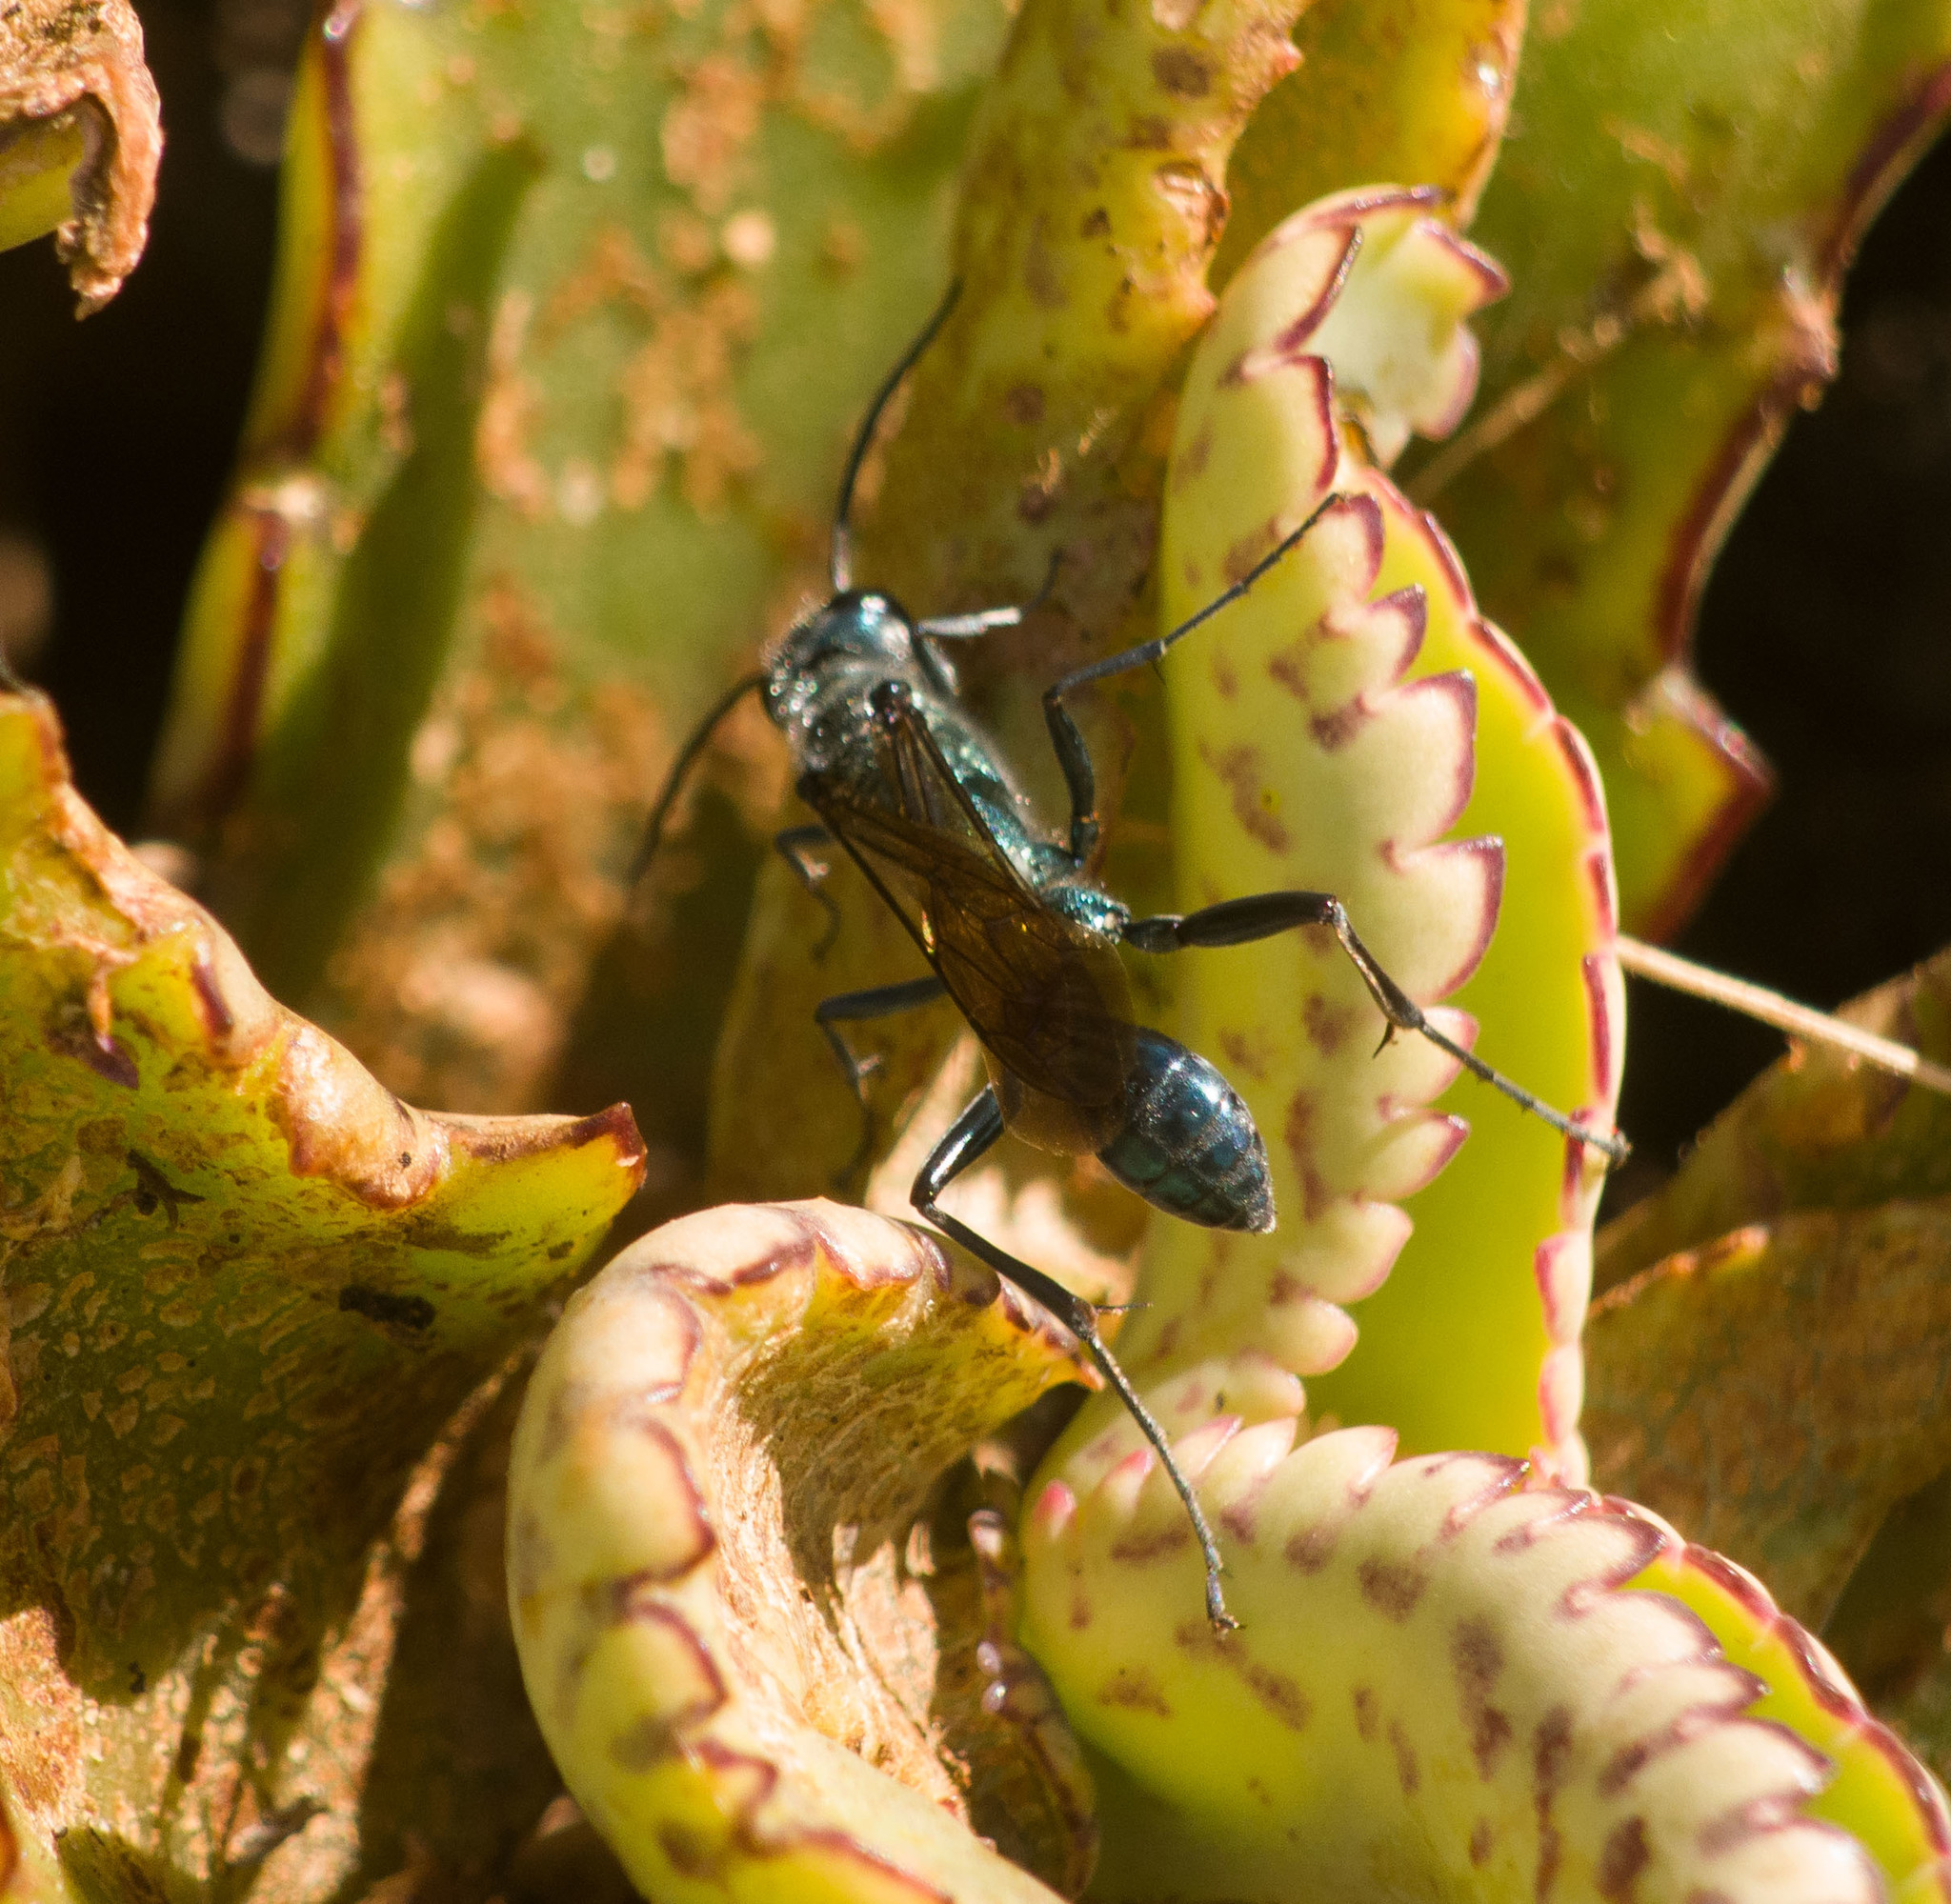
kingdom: Animalia
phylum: Arthropoda
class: Insecta
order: Hymenoptera
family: Sphecidae
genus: Chalybion
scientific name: Chalybion bengalense
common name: Mud dauber
